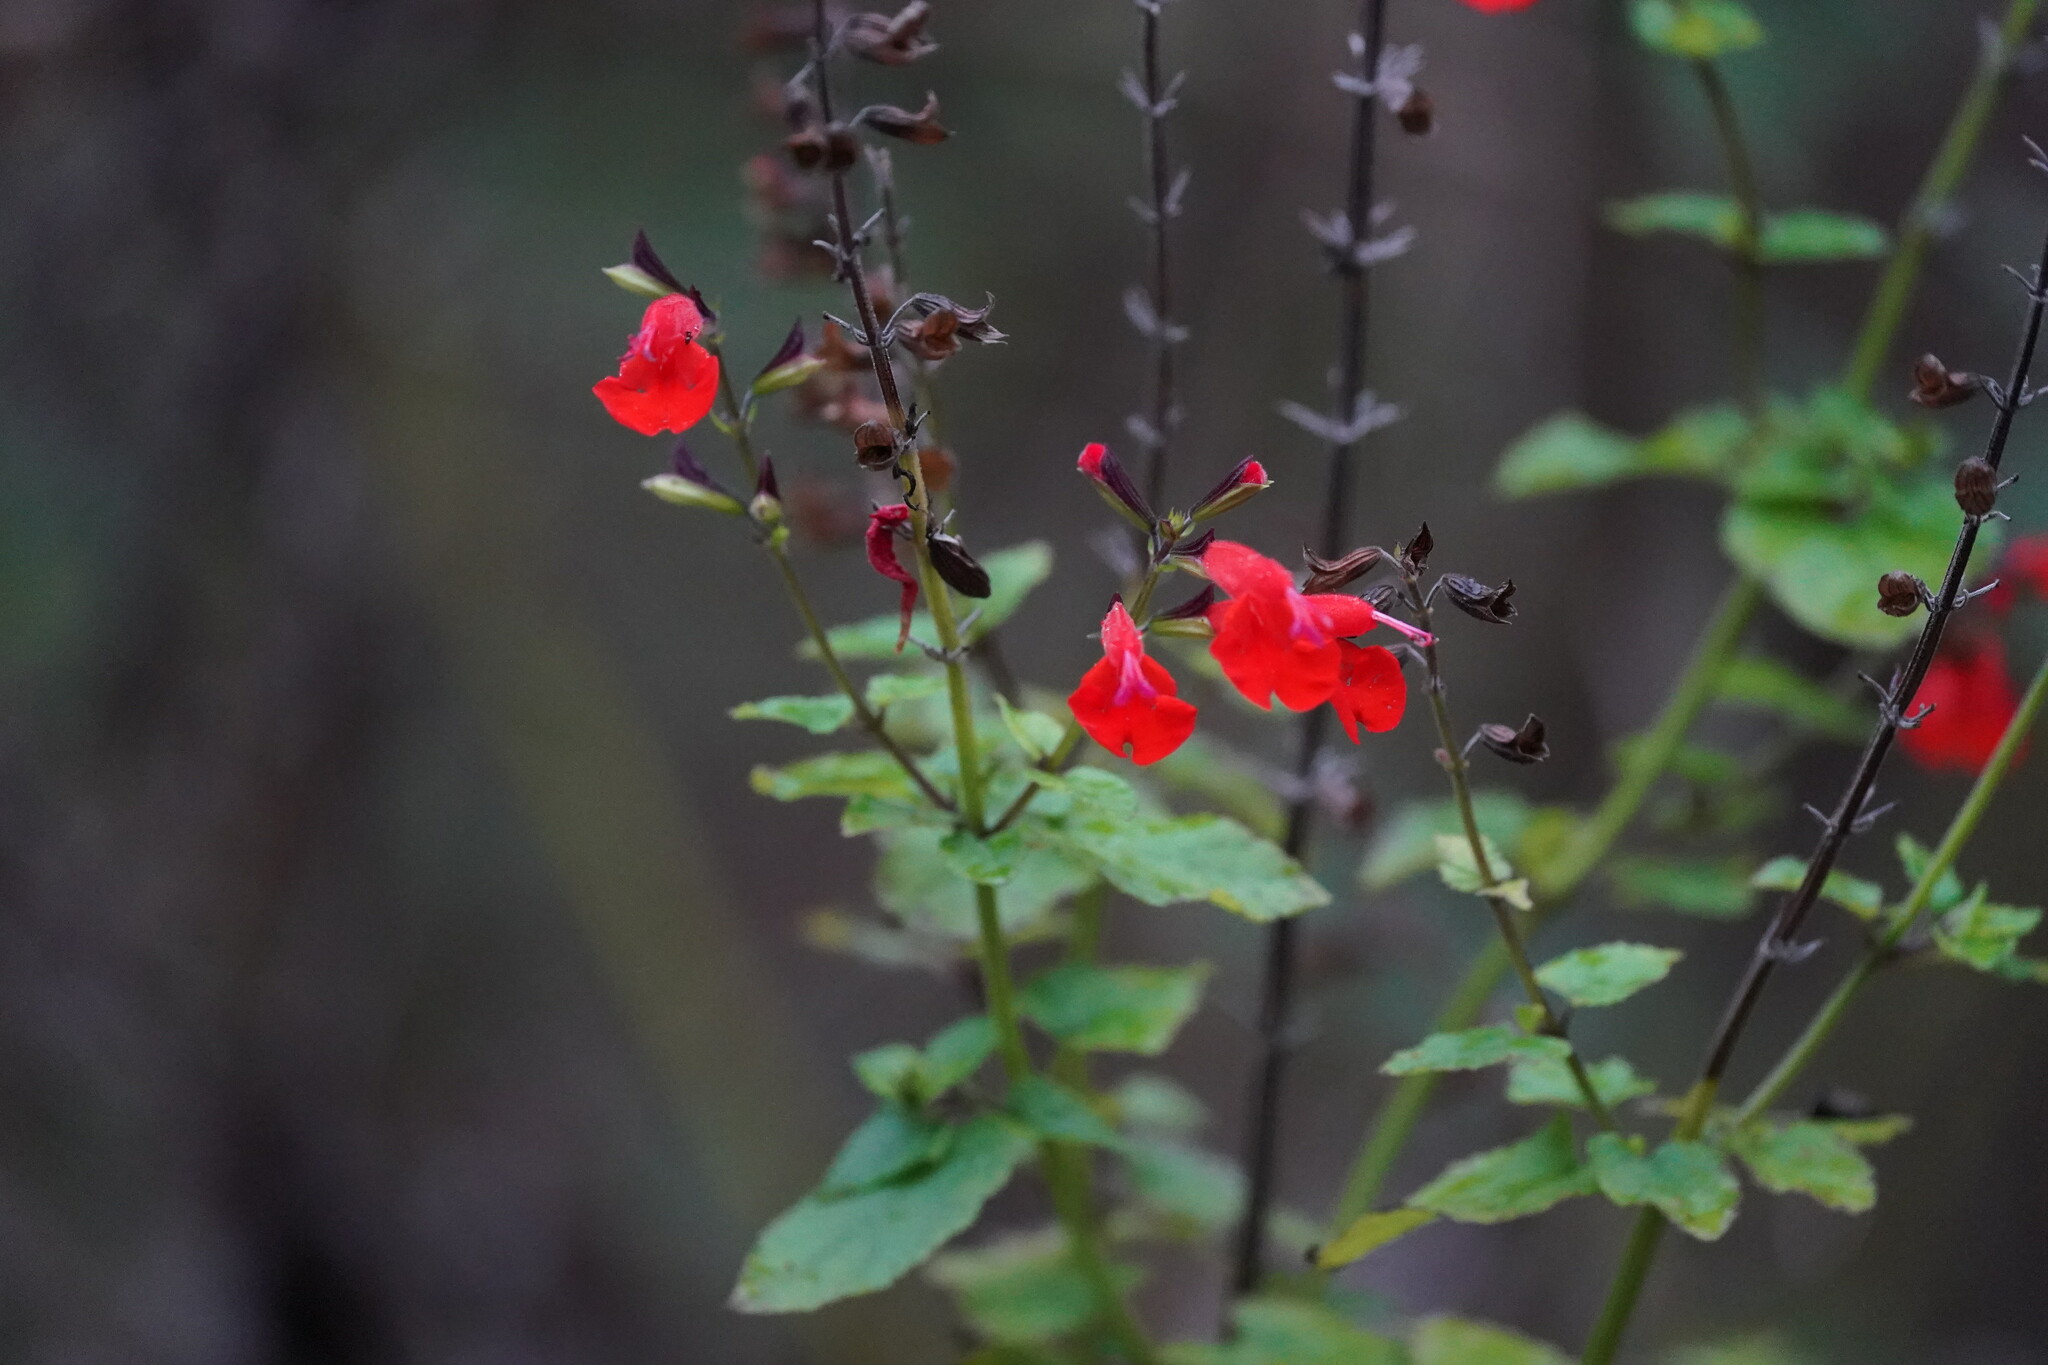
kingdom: Plantae
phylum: Tracheophyta
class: Magnoliopsida
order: Lamiales
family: Lamiaceae
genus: Salvia
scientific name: Salvia coccinea
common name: Blood sage
